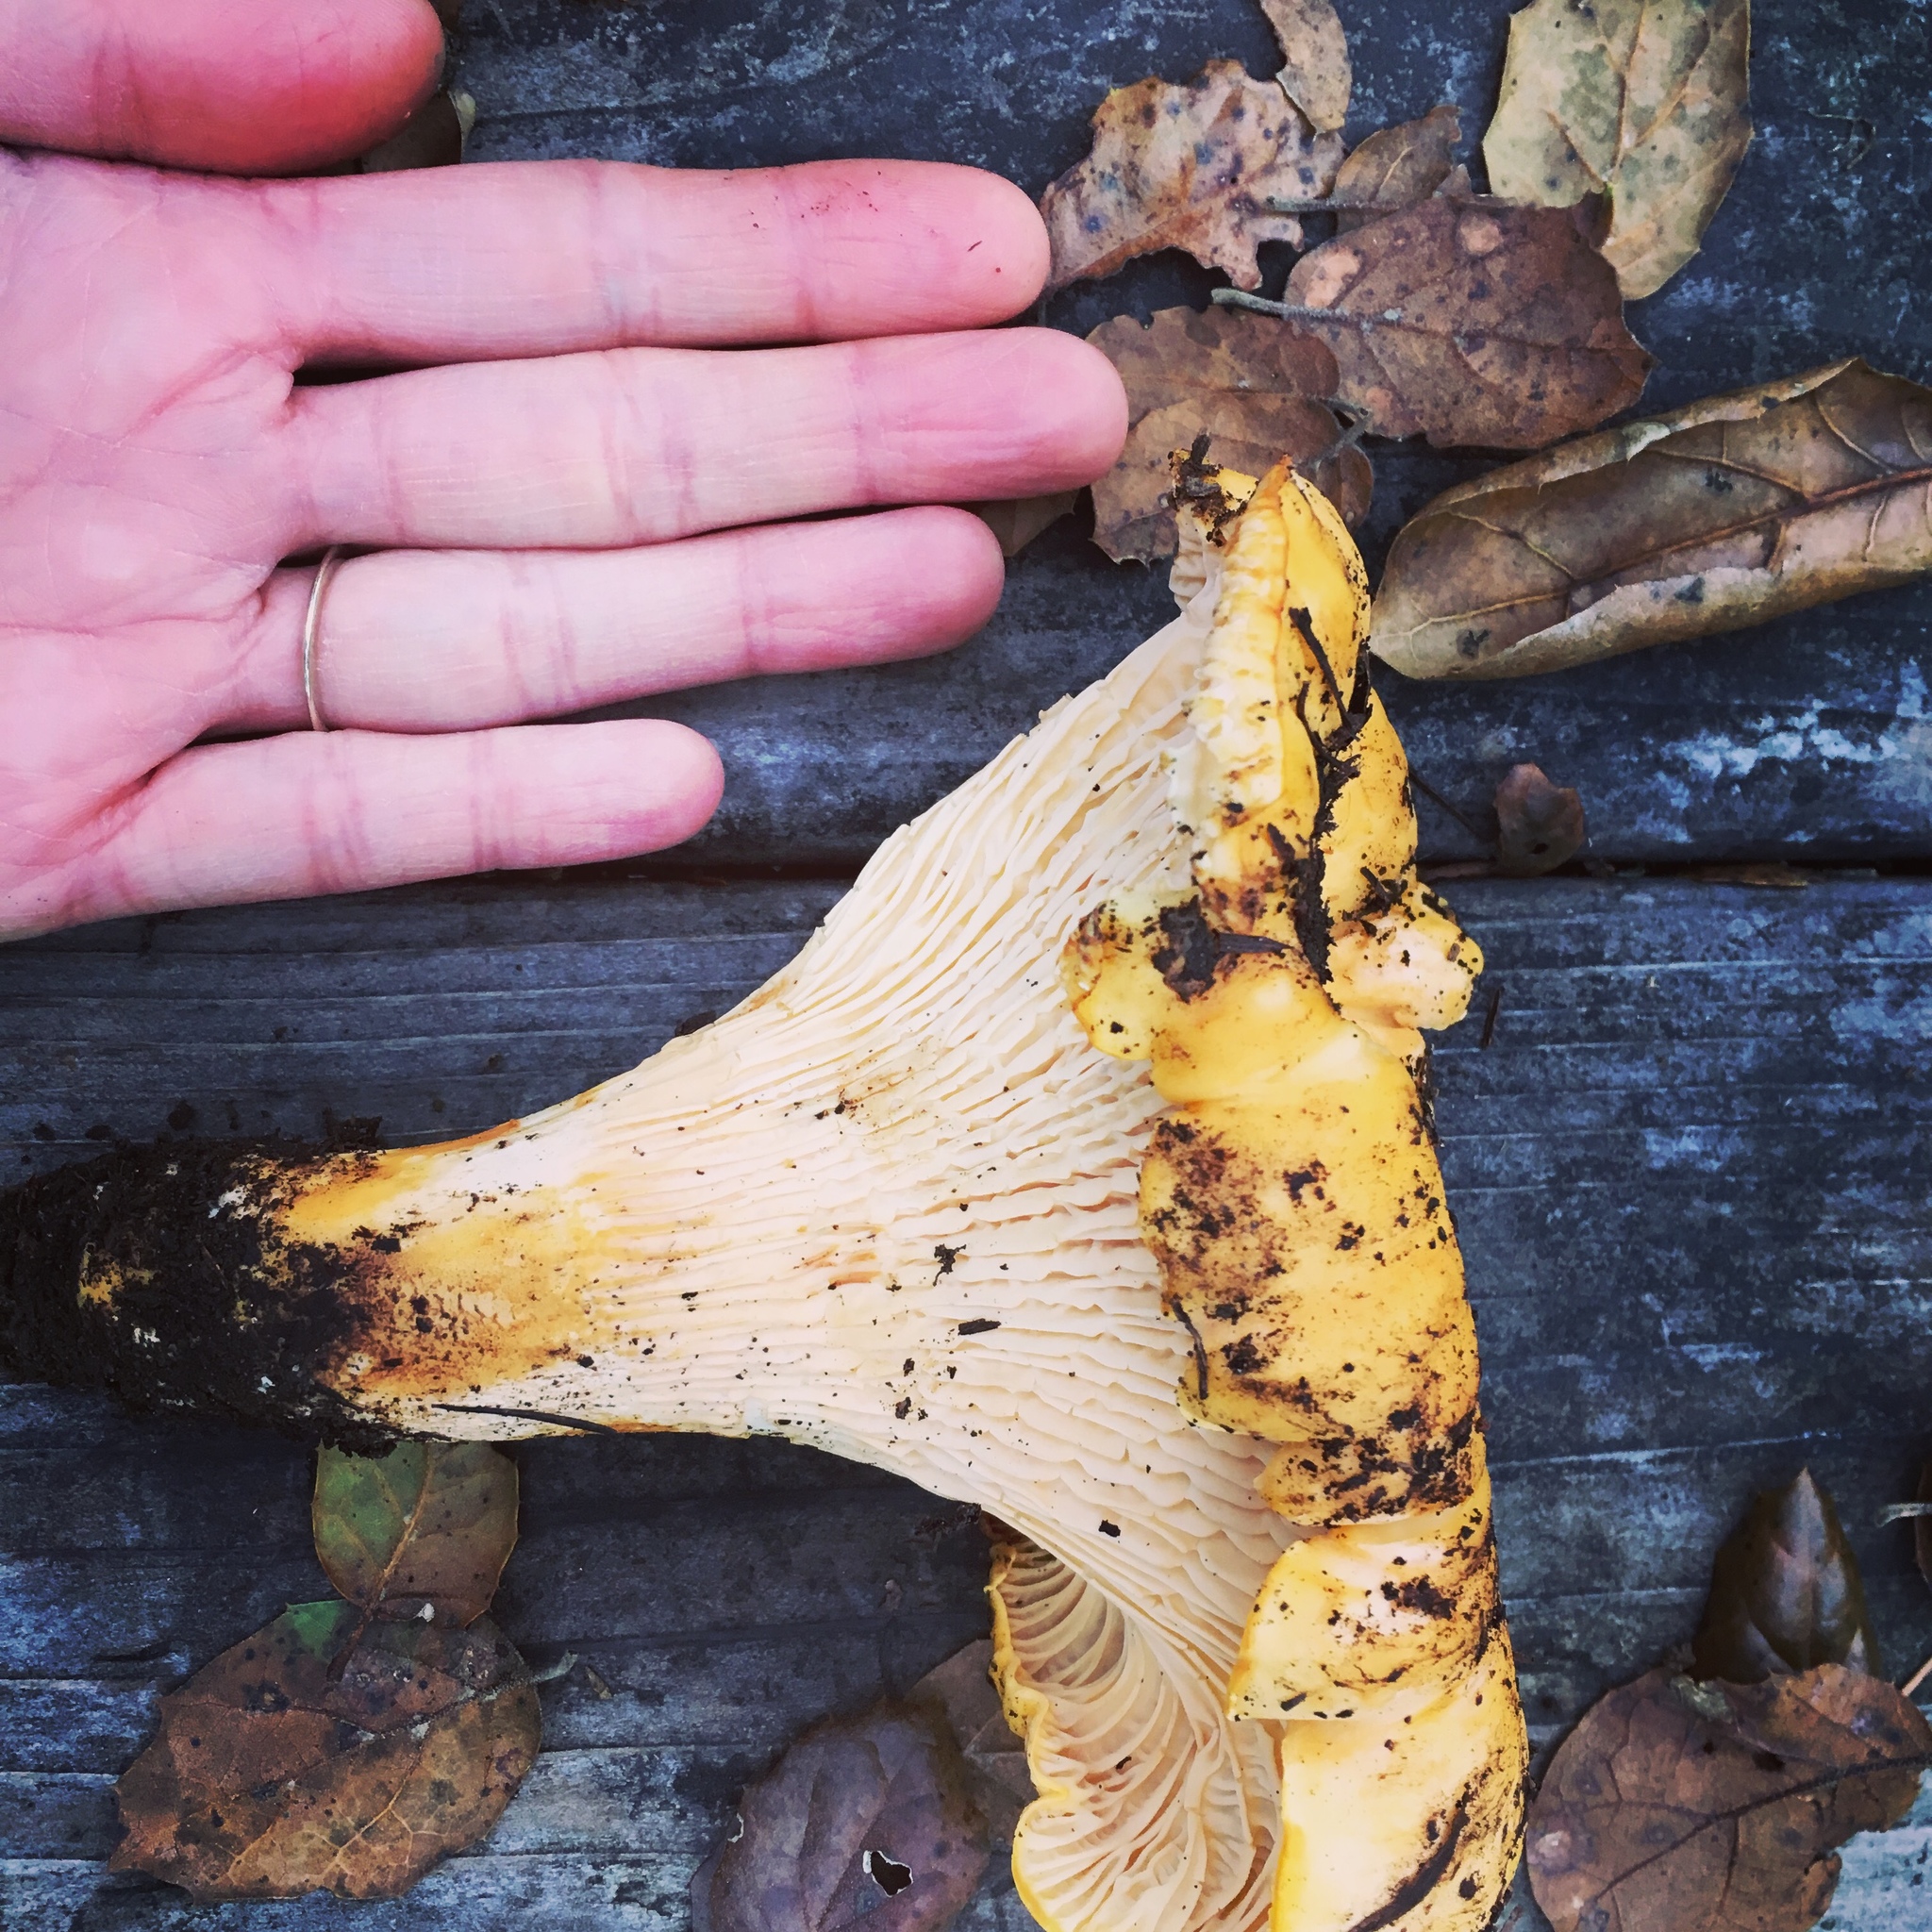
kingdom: Fungi
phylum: Basidiomycota
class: Agaricomycetes
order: Cantharellales
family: Hydnaceae
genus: Cantharellus
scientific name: Cantharellus californicus
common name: California golden chanterelle
